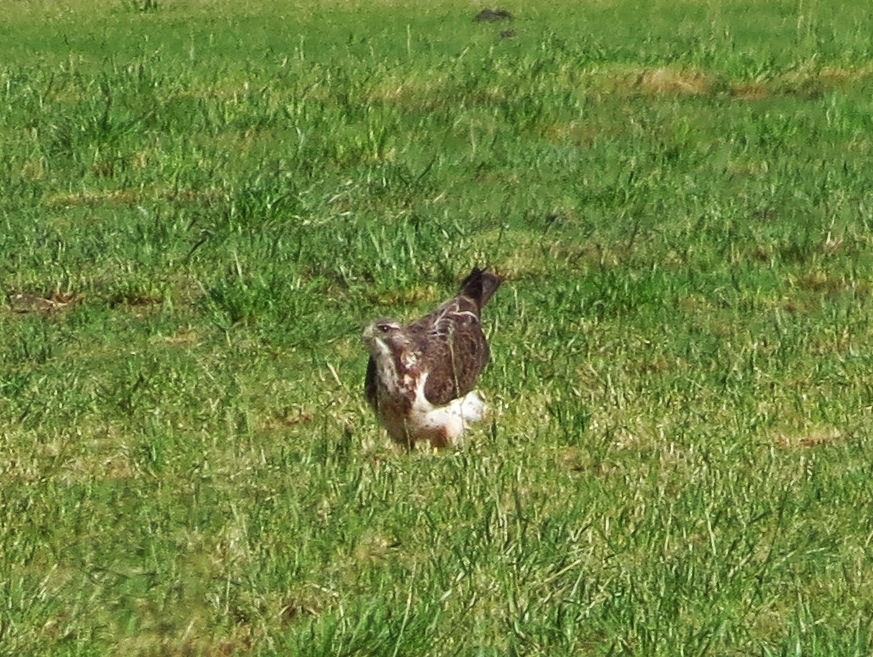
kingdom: Animalia
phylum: Chordata
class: Aves
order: Accipitriformes
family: Accipitridae
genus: Buteo
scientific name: Buteo swainsoni
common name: Swainson's hawk
